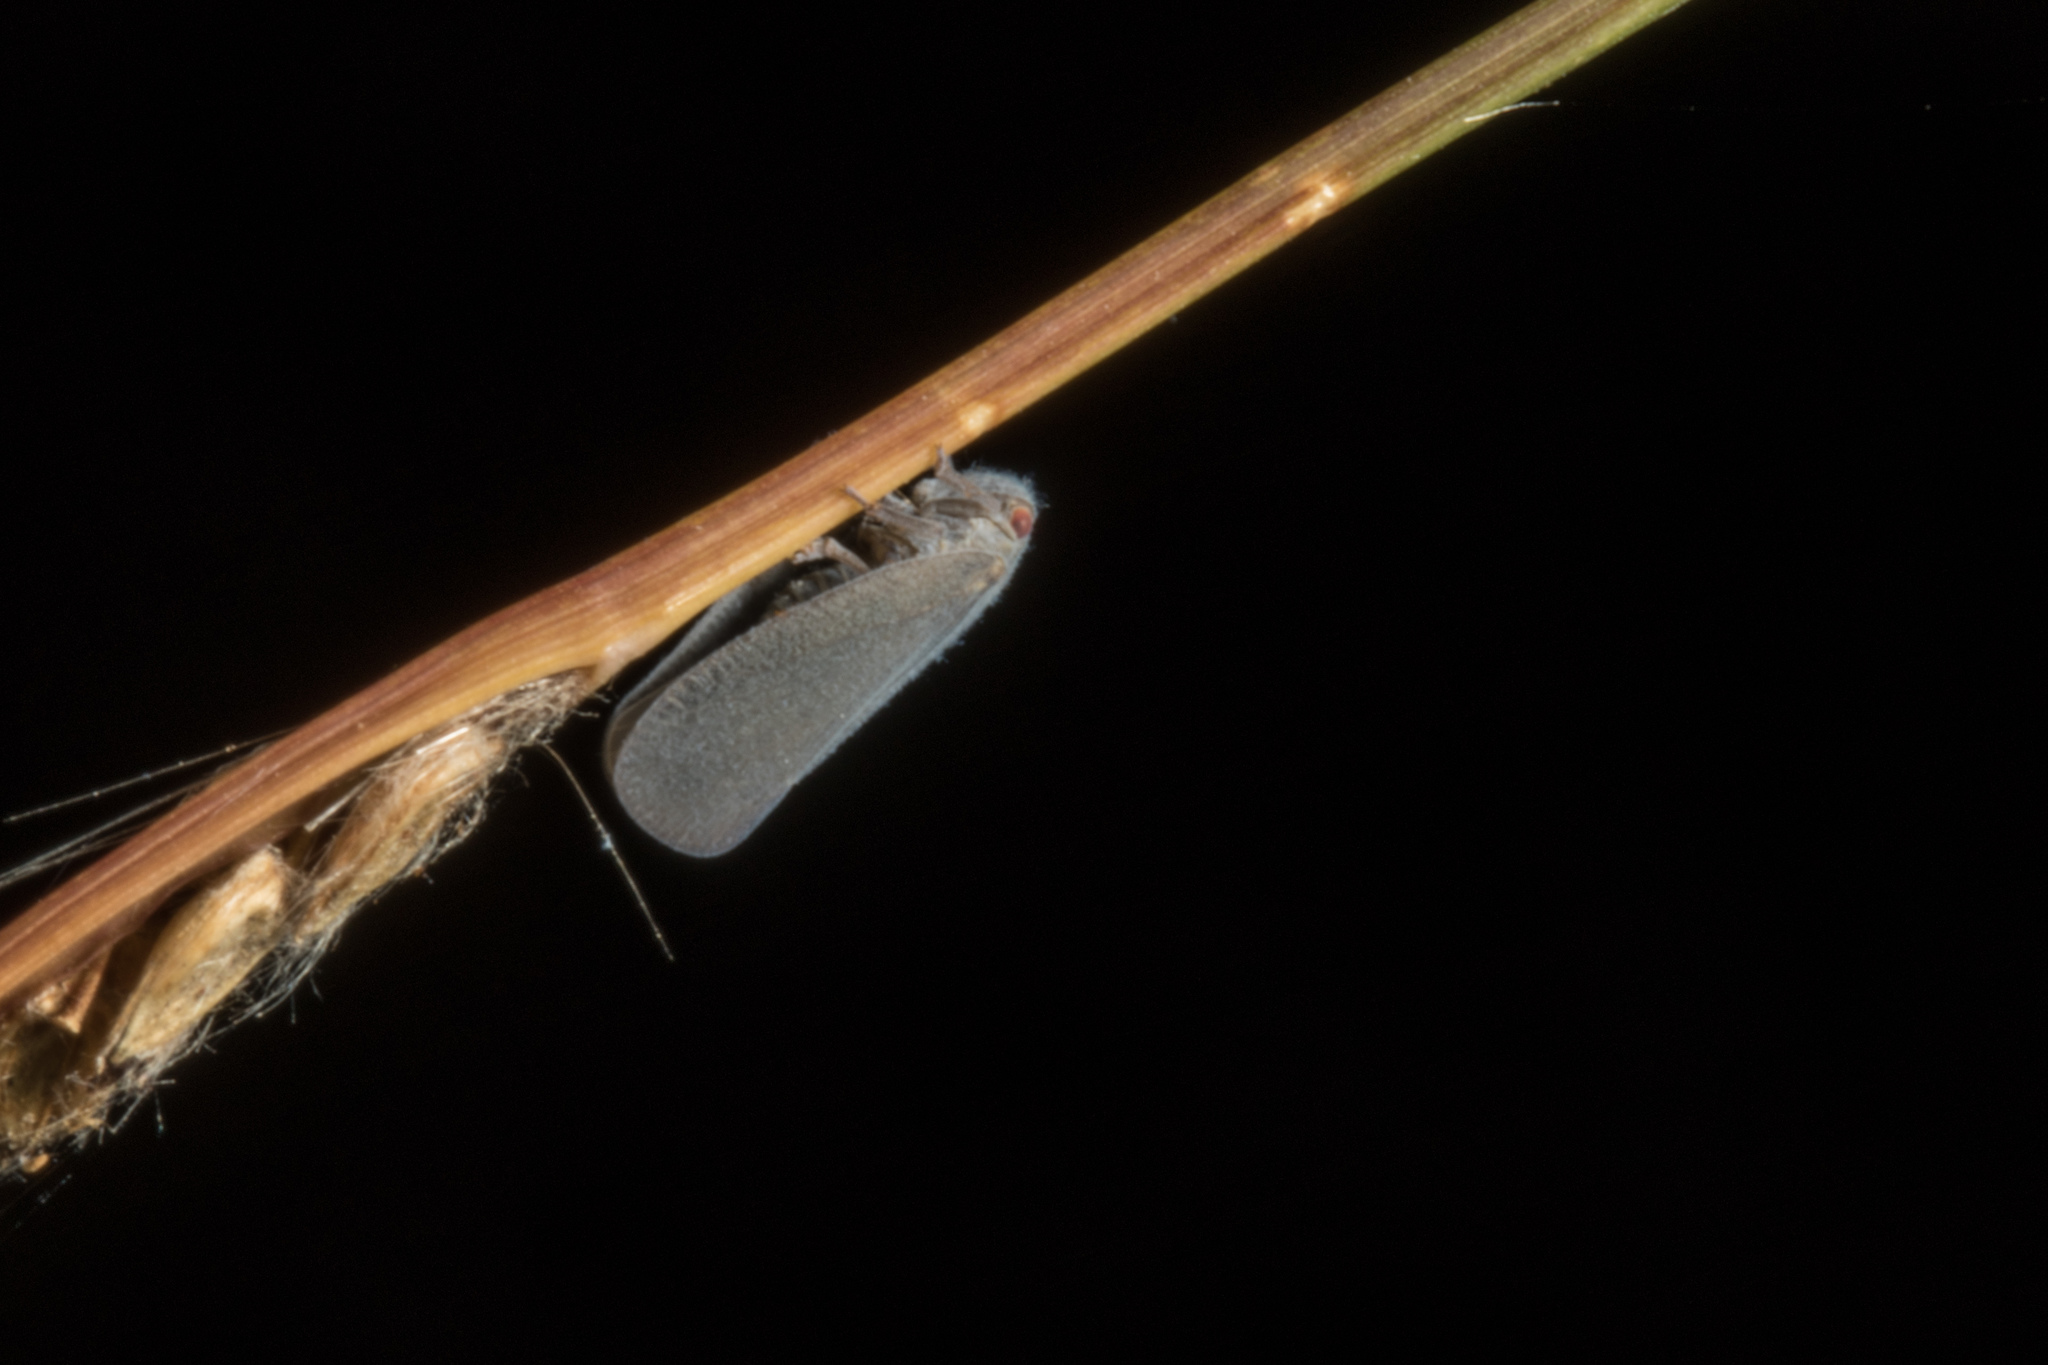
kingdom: Animalia
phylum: Arthropoda
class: Insecta
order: Hemiptera
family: Flatidae
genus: Anzora
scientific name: Anzora unicolor
